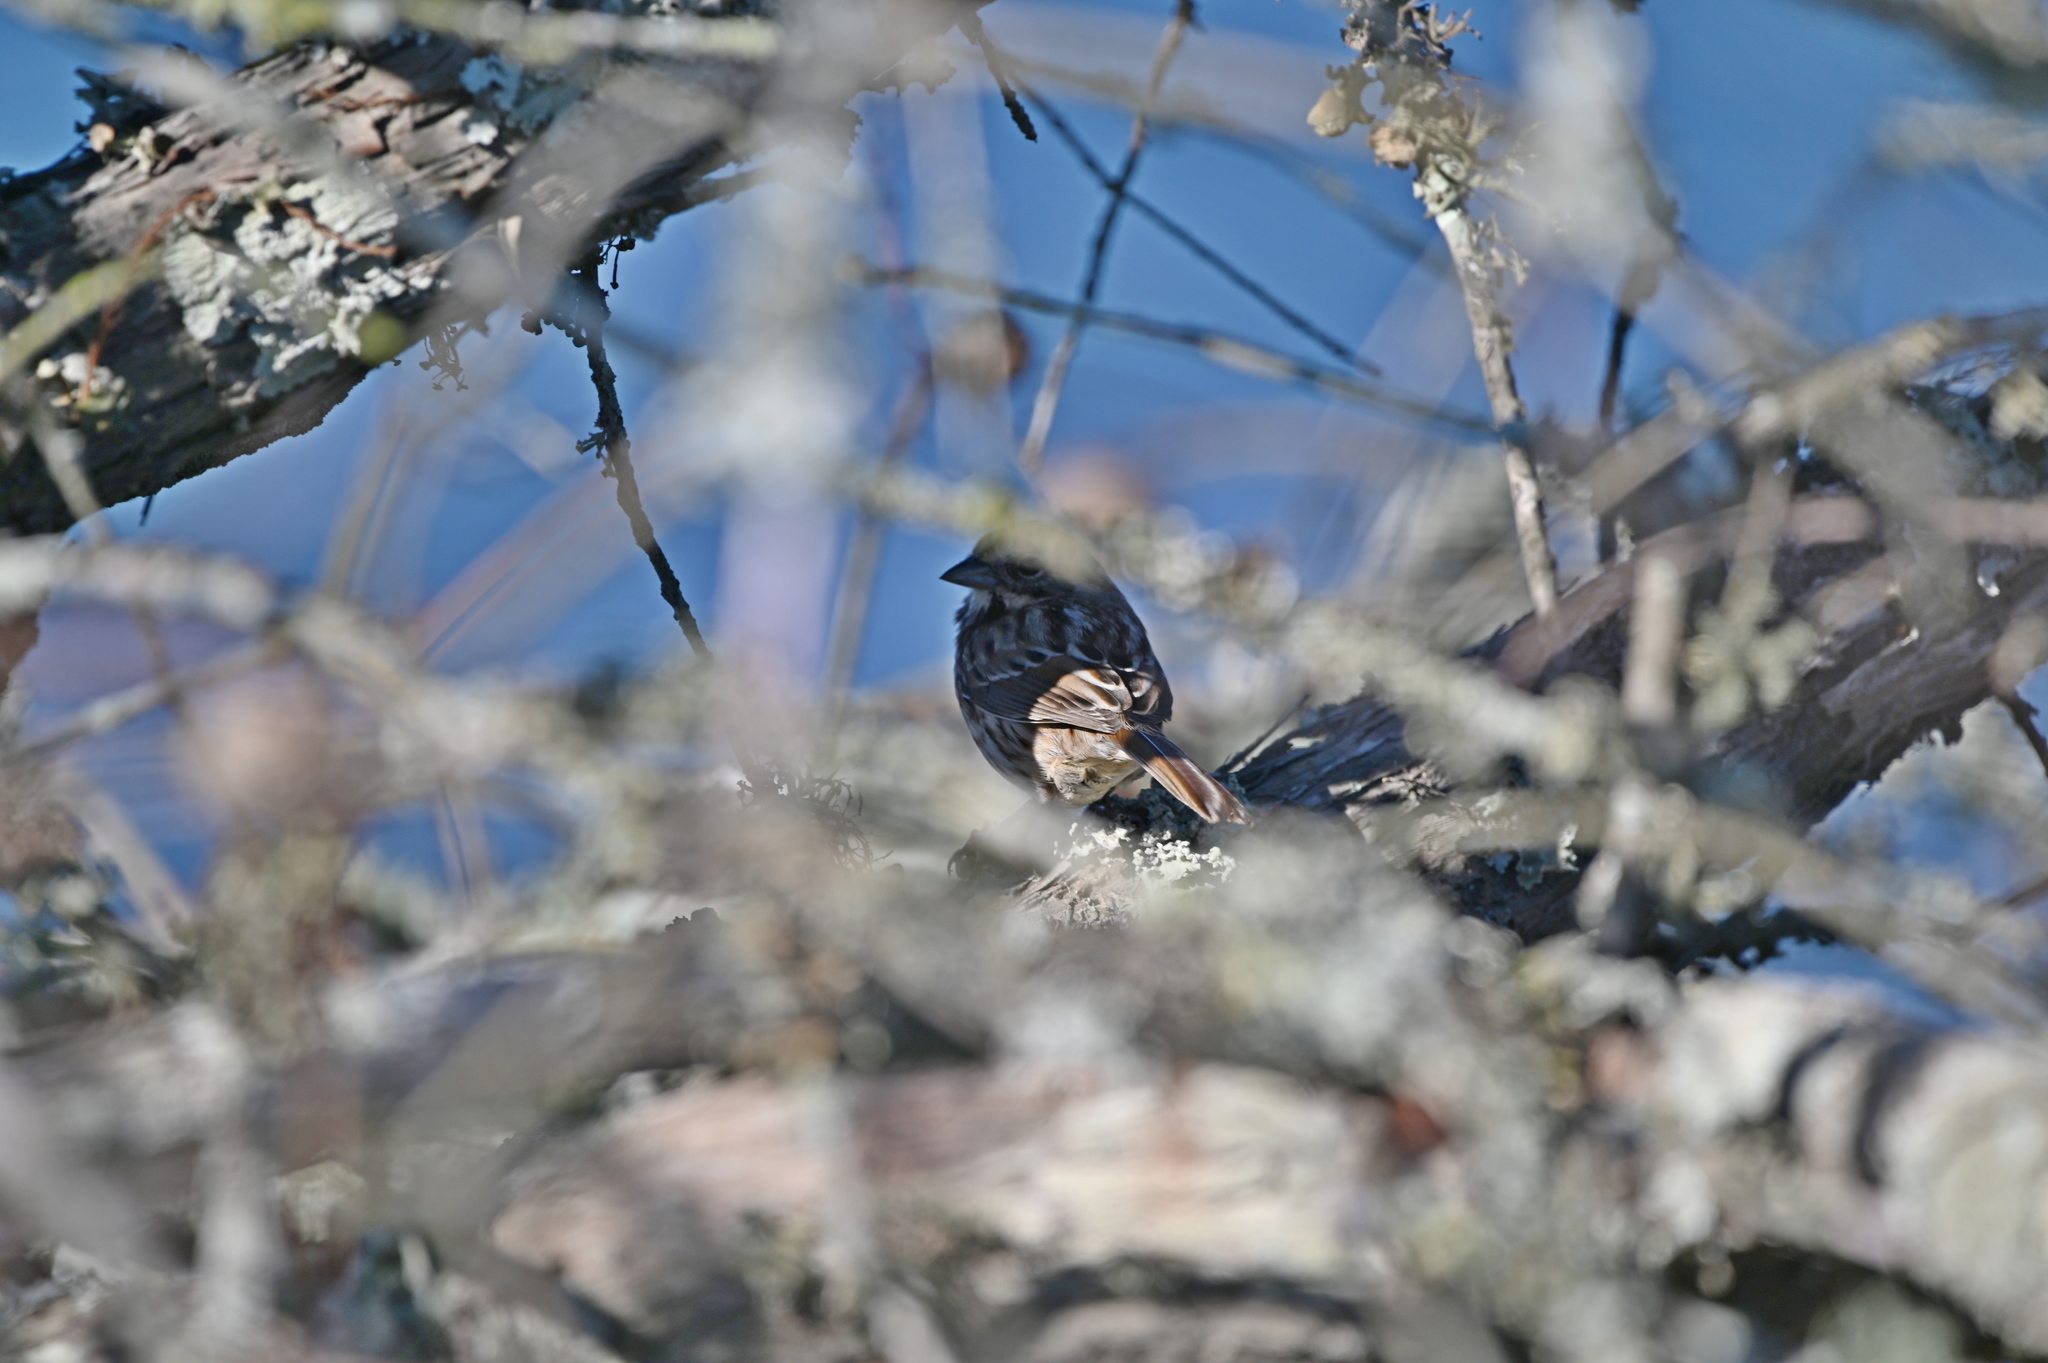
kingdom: Animalia
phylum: Chordata
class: Aves
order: Passeriformes
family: Passerellidae
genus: Melospiza
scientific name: Melospiza melodia
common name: Song sparrow
